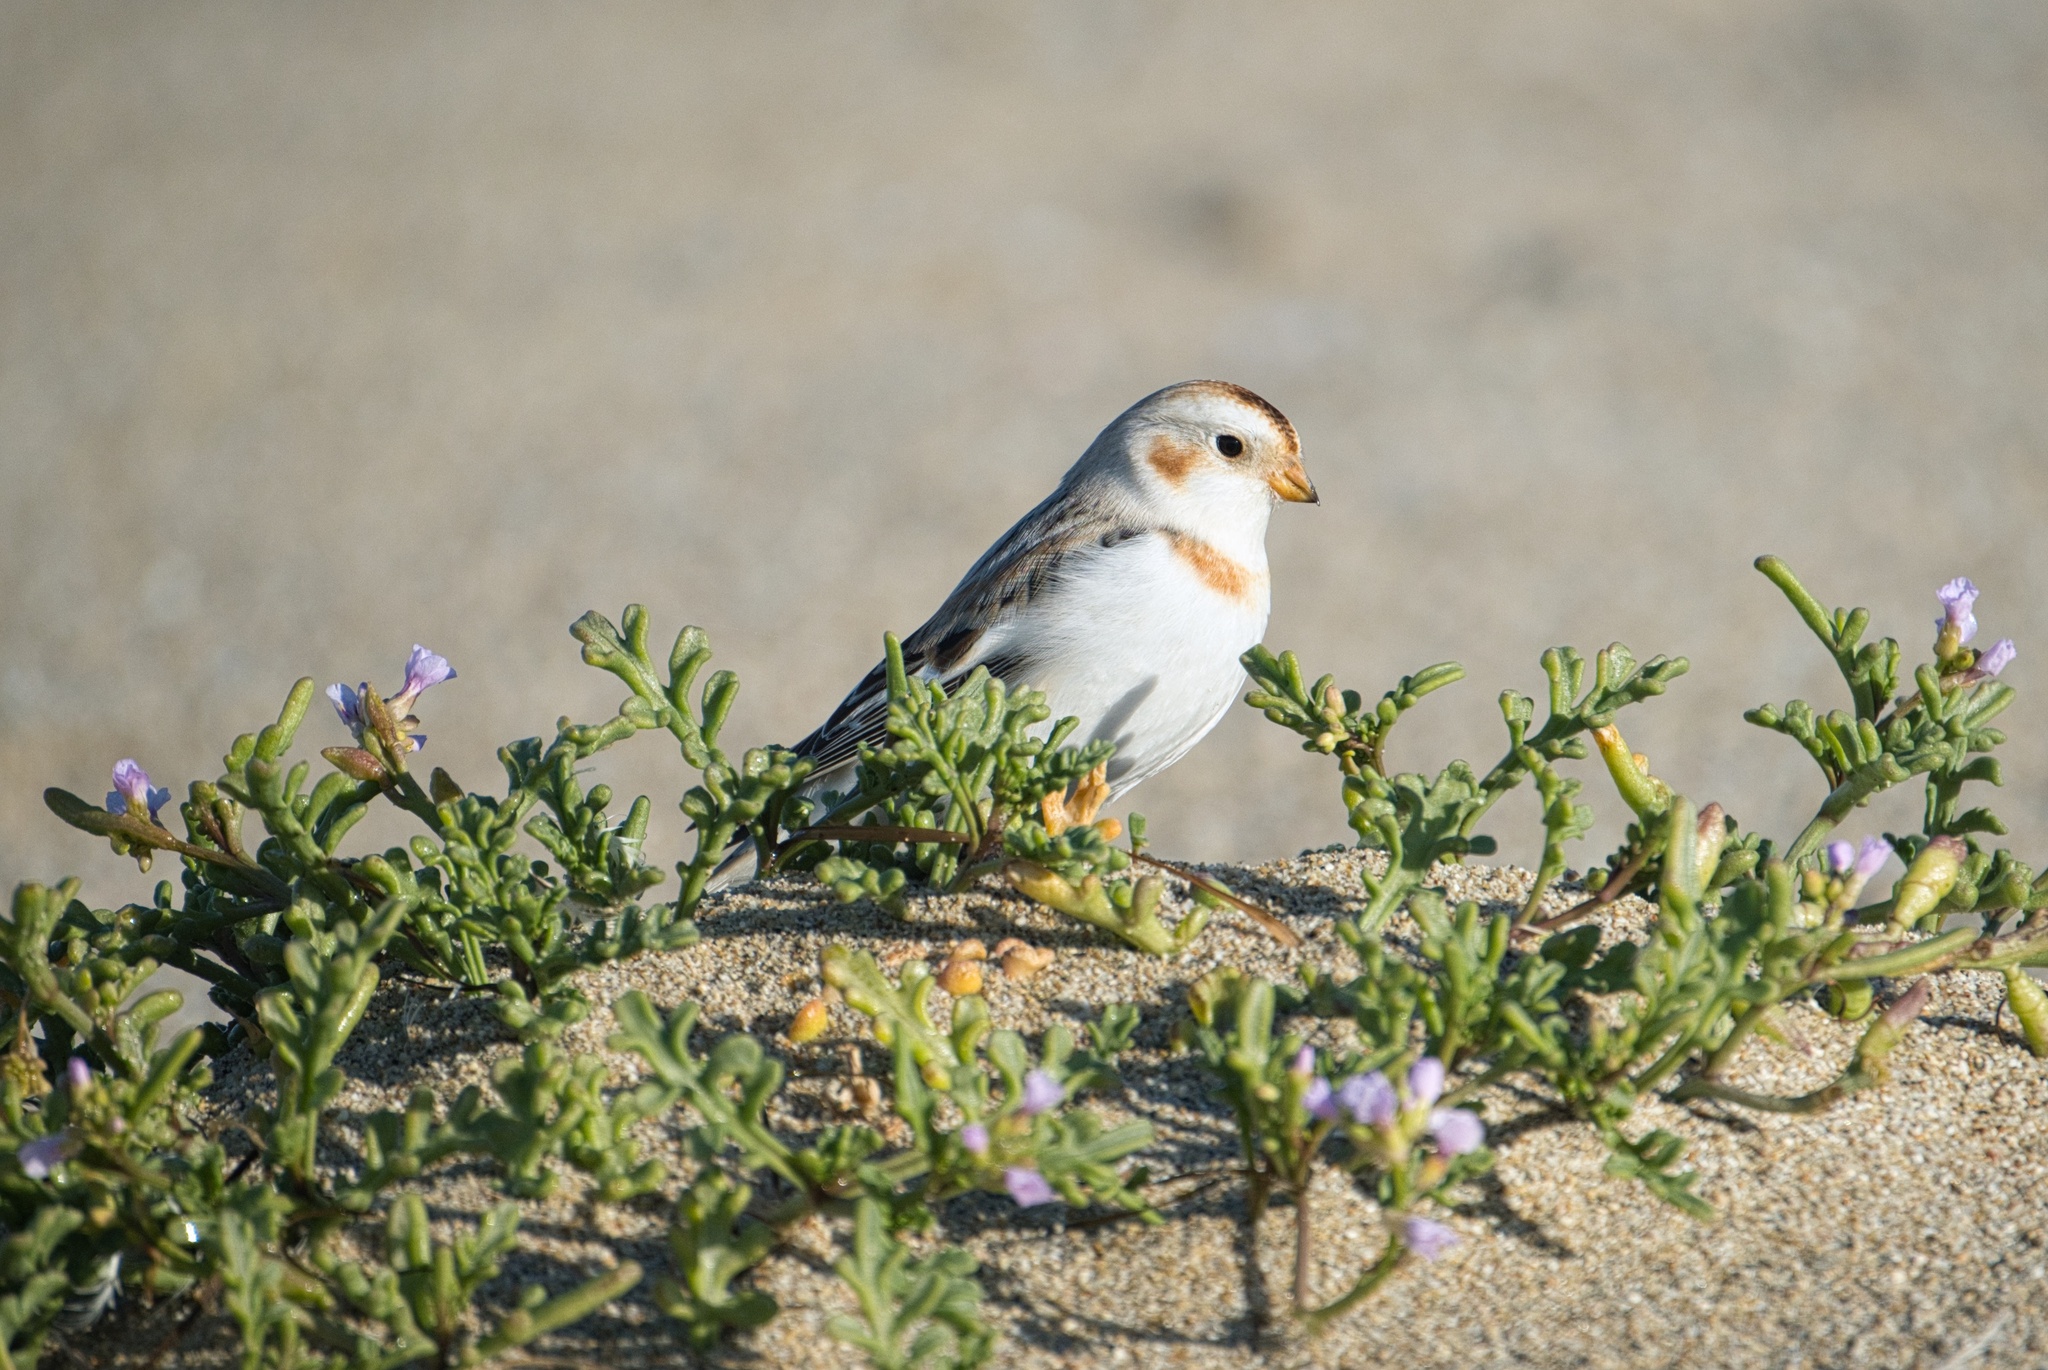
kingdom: Animalia
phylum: Chordata
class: Aves
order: Passeriformes
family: Calcariidae
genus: Plectrophenax
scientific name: Plectrophenax nivalis
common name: Snow bunting
